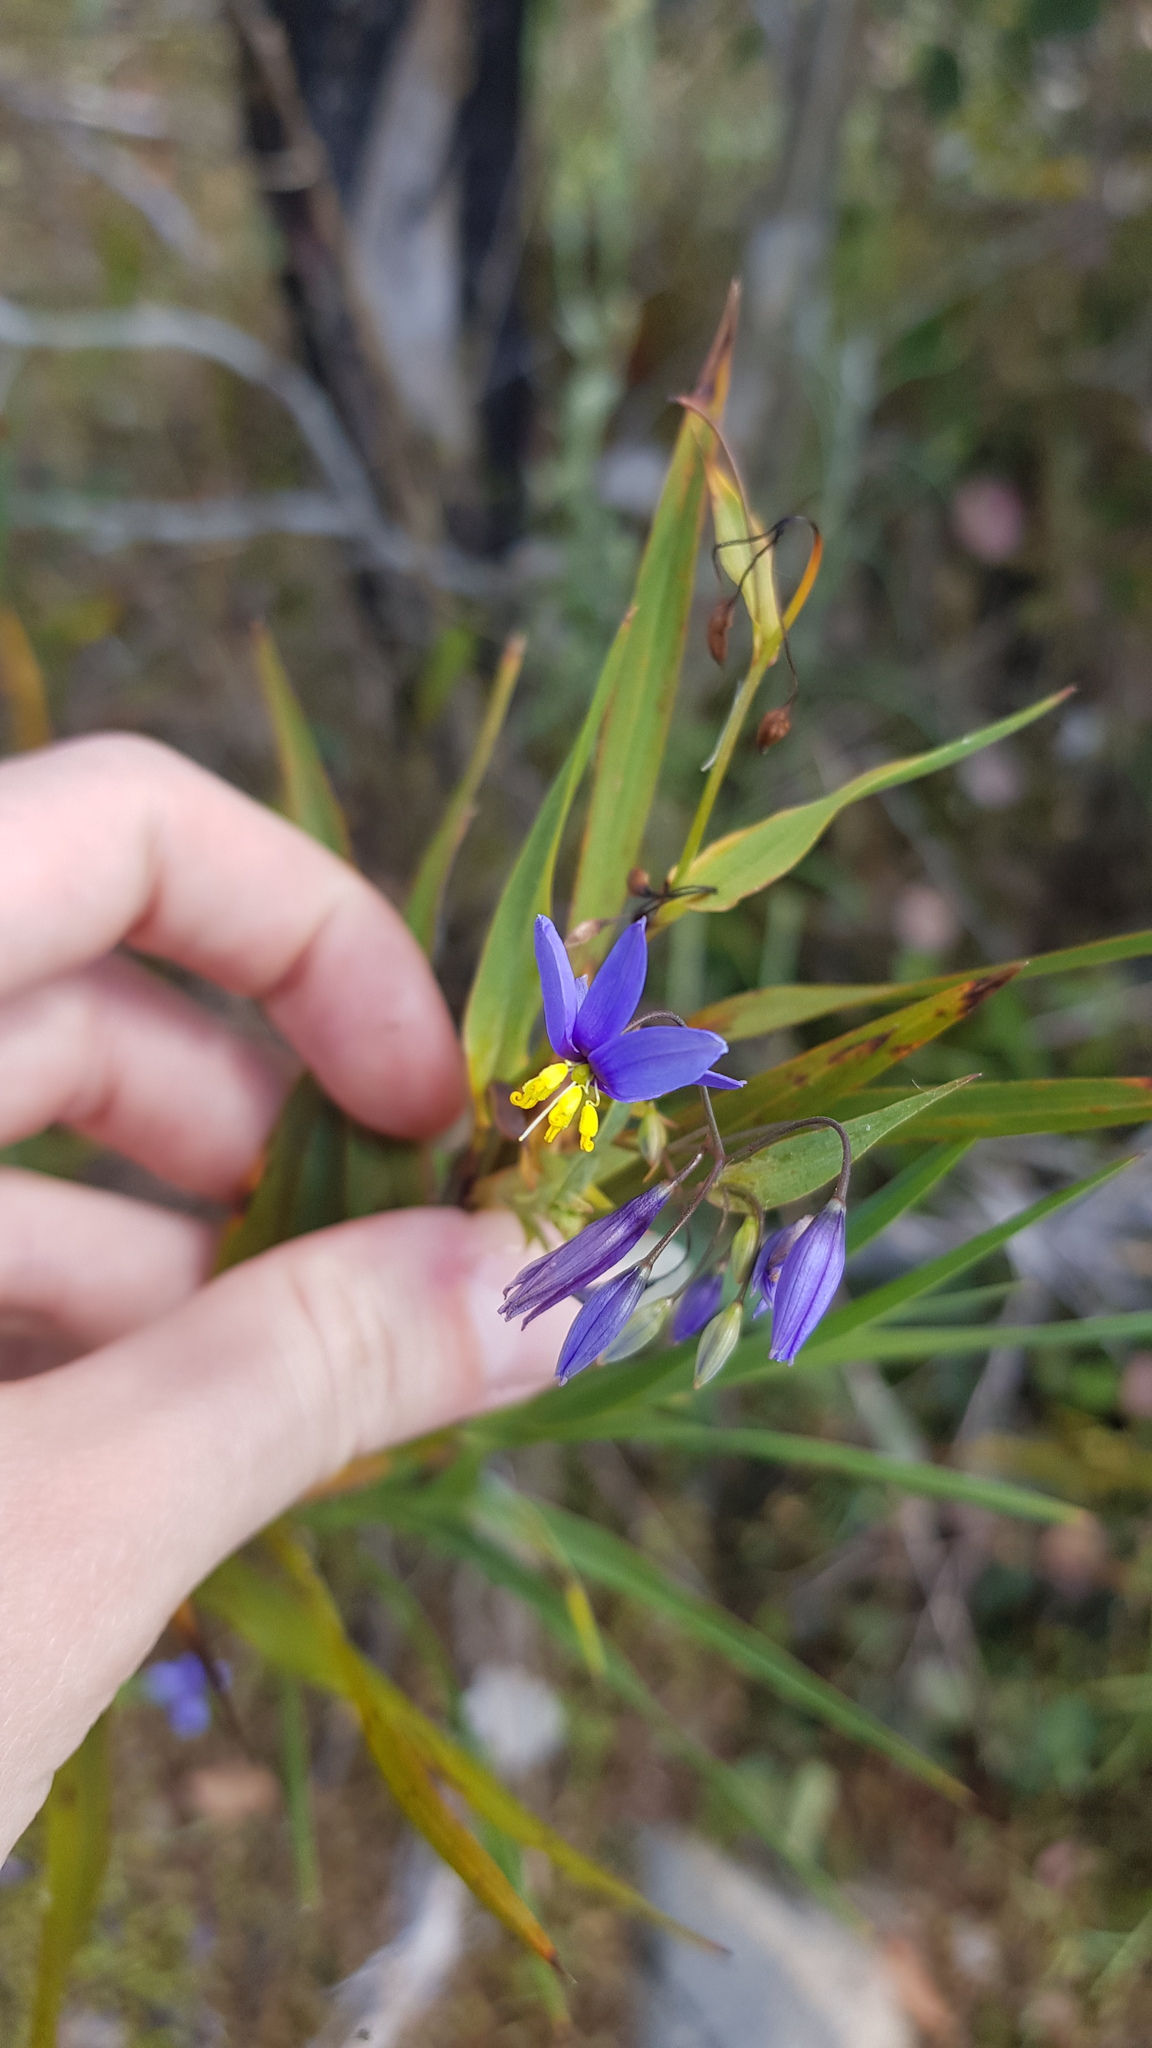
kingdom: Plantae
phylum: Tracheophyta
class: Liliopsida
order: Asparagales
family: Asphodelaceae
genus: Stypandra
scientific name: Stypandra glauca
